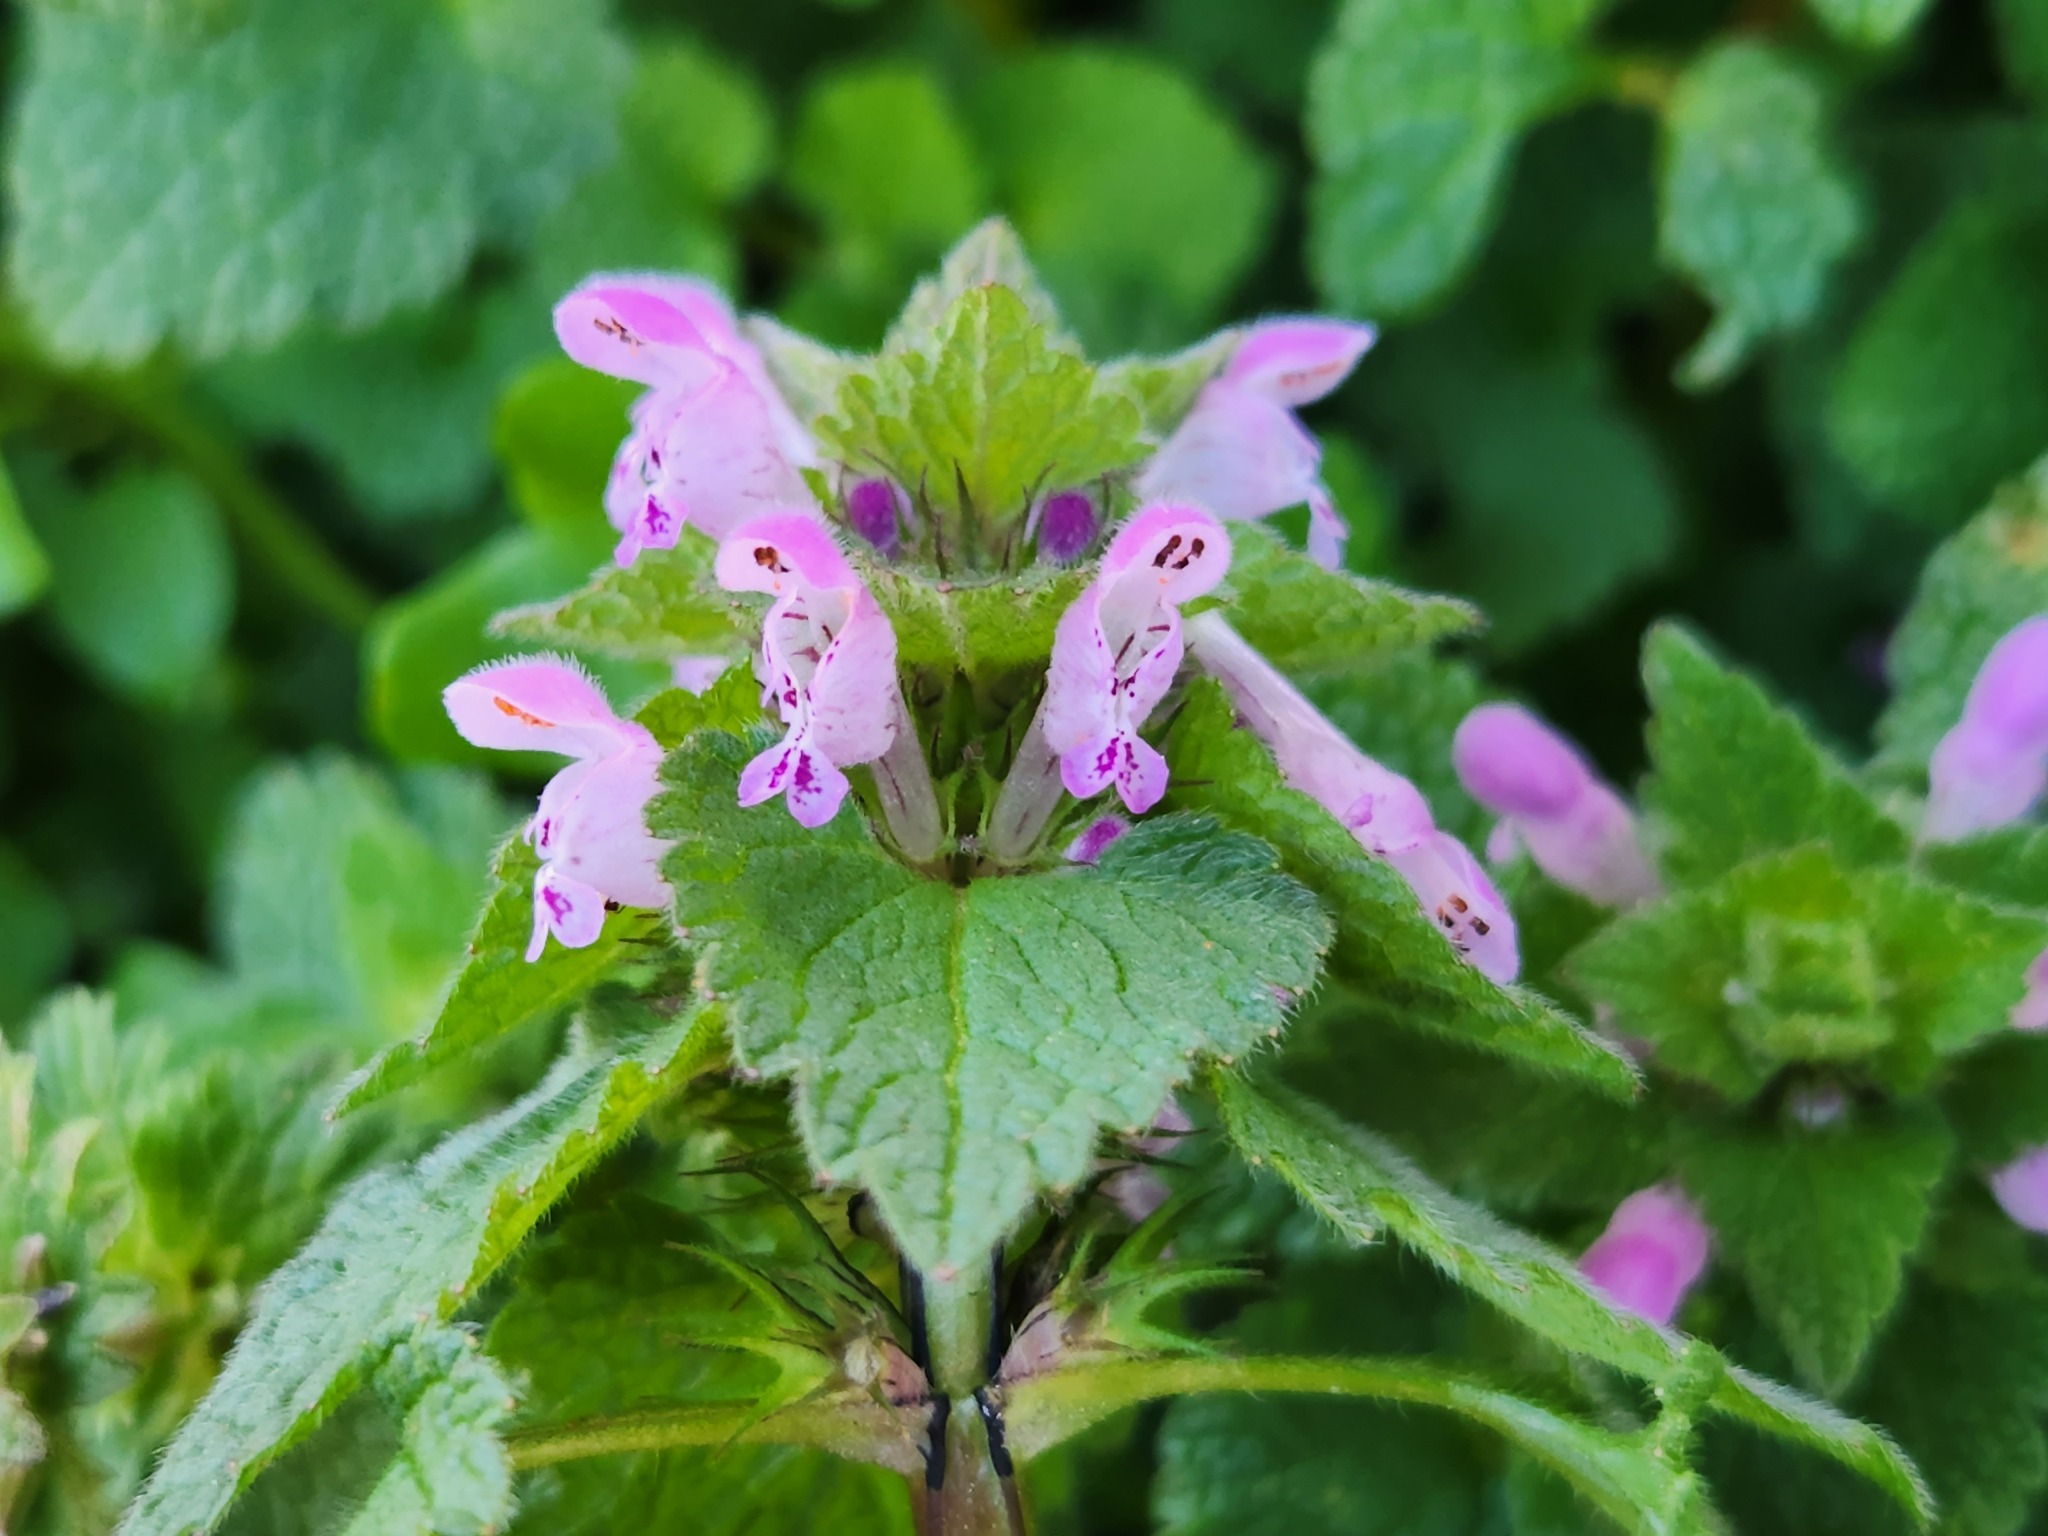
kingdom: Plantae
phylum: Tracheophyta
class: Magnoliopsida
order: Lamiales
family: Lamiaceae
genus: Lamium
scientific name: Lamium purpureum
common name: Red dead-nettle
